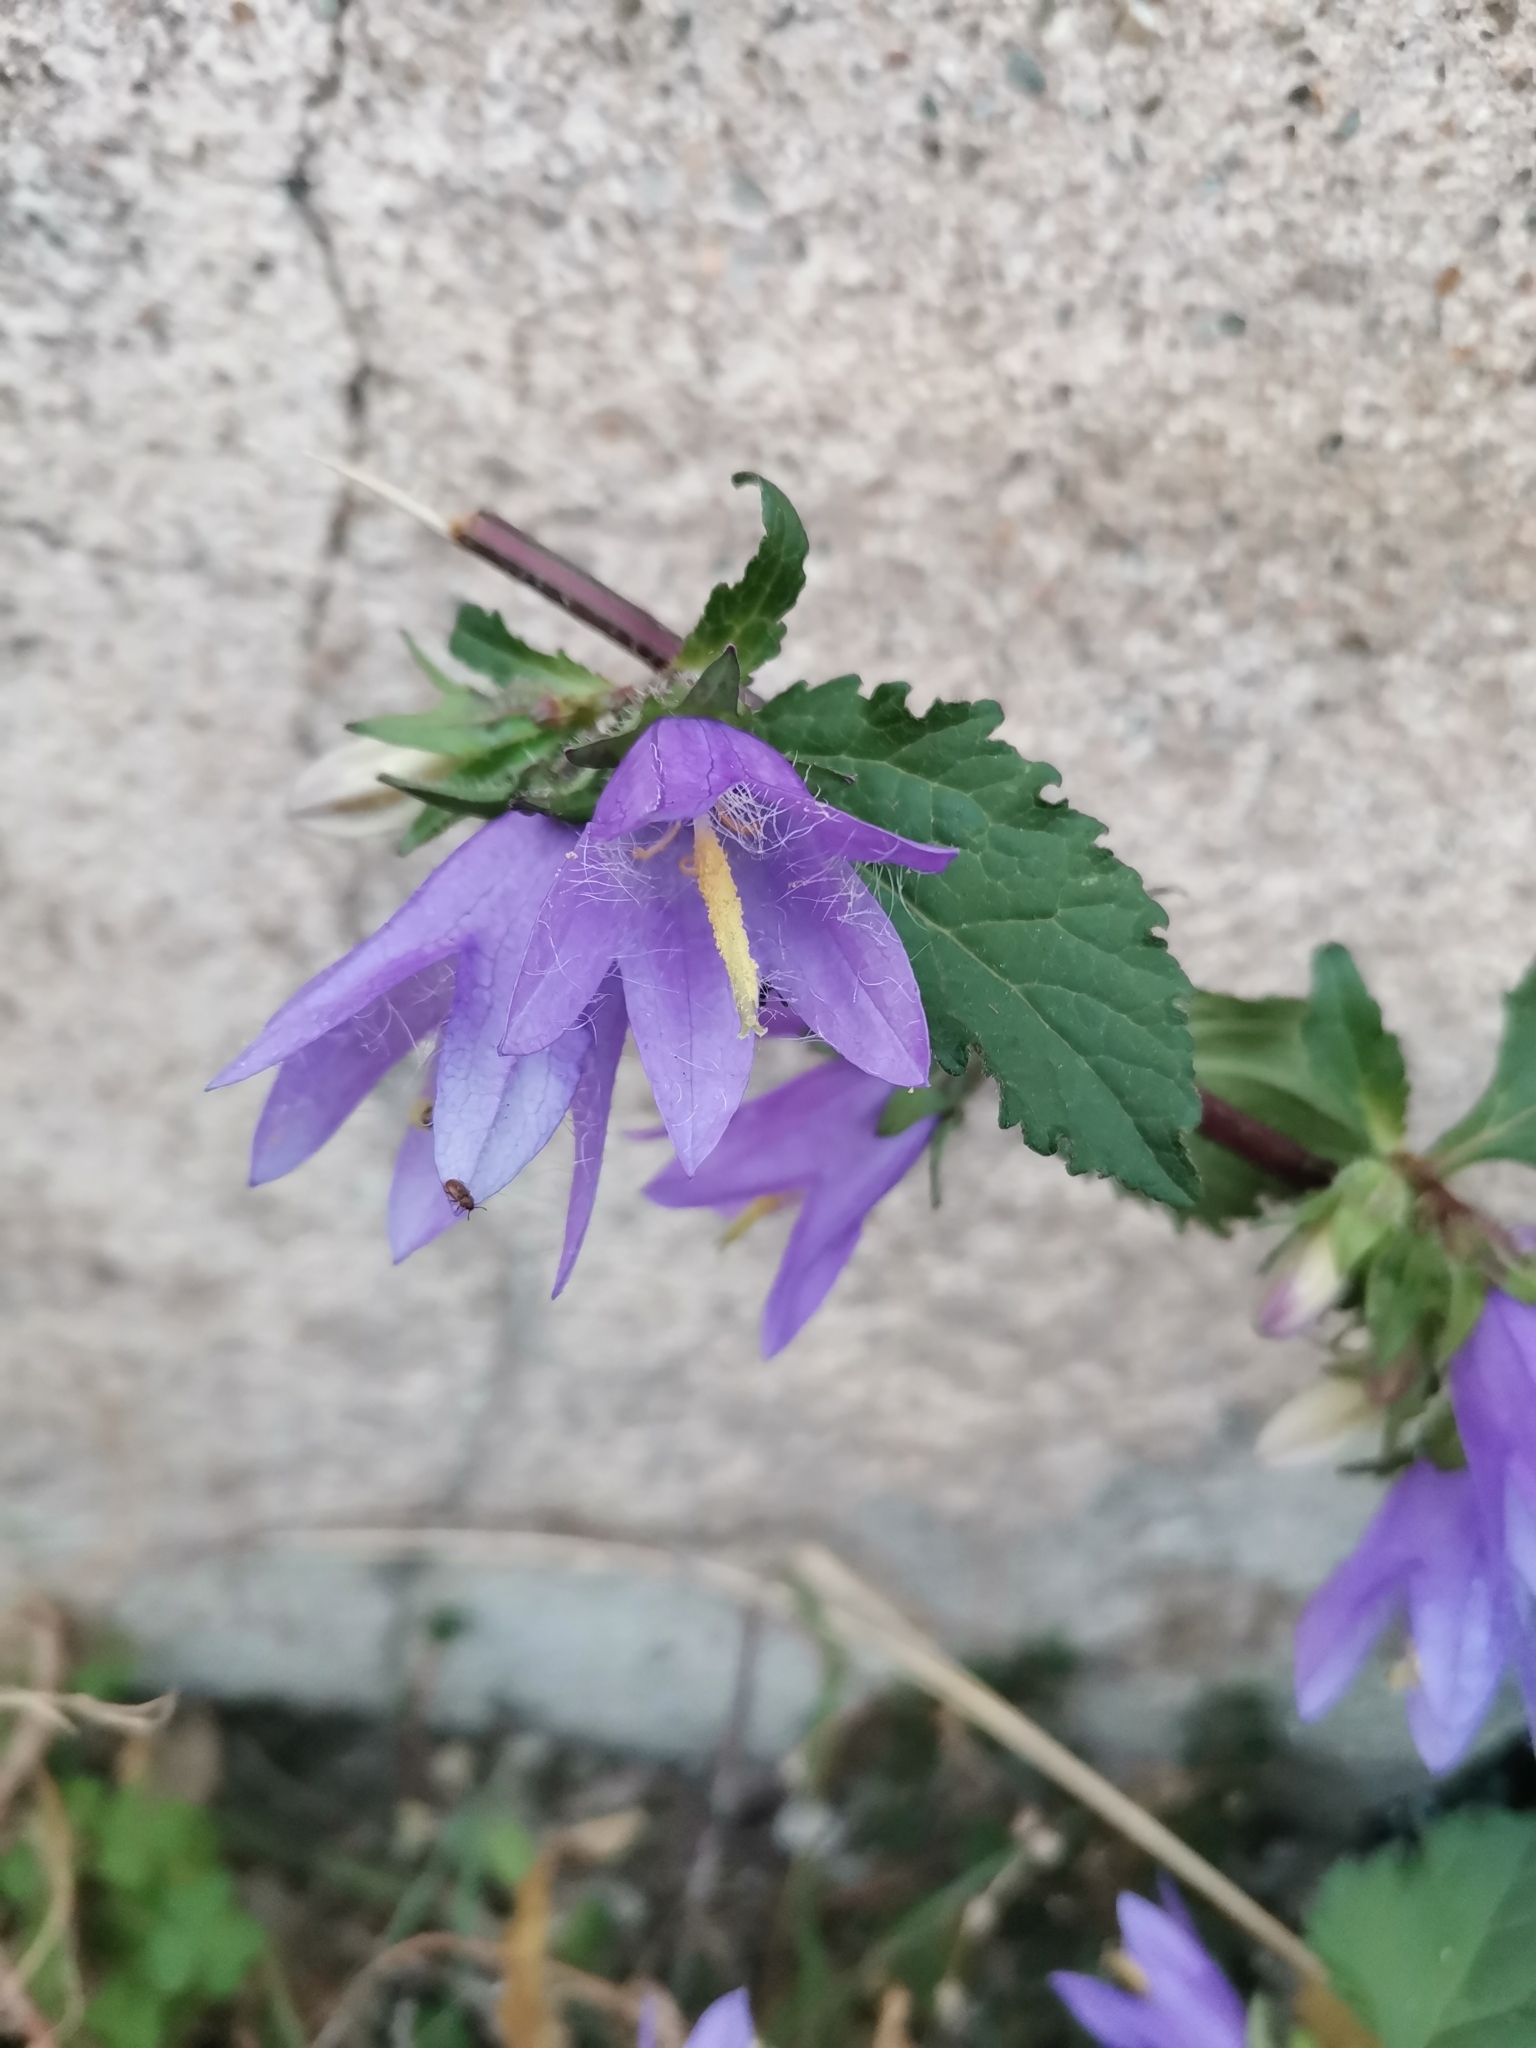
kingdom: Plantae
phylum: Tracheophyta
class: Magnoliopsida
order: Asterales
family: Campanulaceae
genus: Campanula
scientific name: Campanula trachelium
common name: Nettle-leaved bellflower
